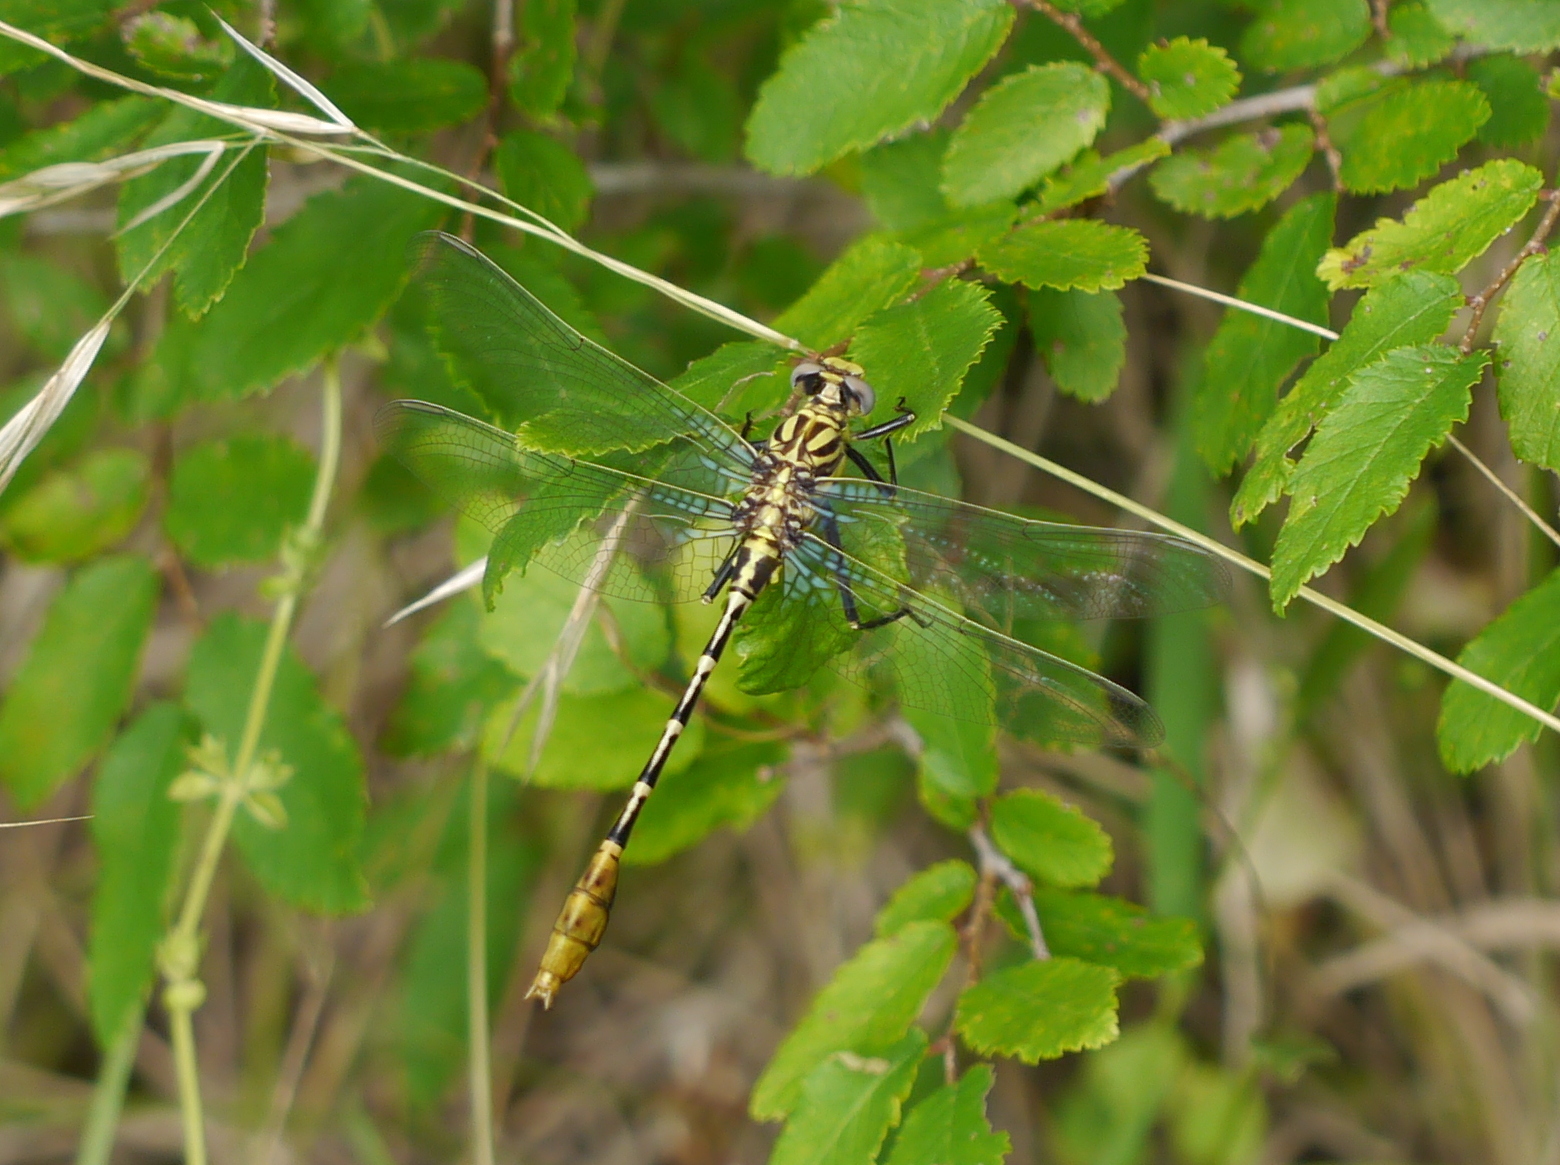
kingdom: Animalia
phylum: Arthropoda
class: Insecta
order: Odonata
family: Gomphidae
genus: Dromogomphus
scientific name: Dromogomphus spoliatus
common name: Flag-tailed spinyleg
